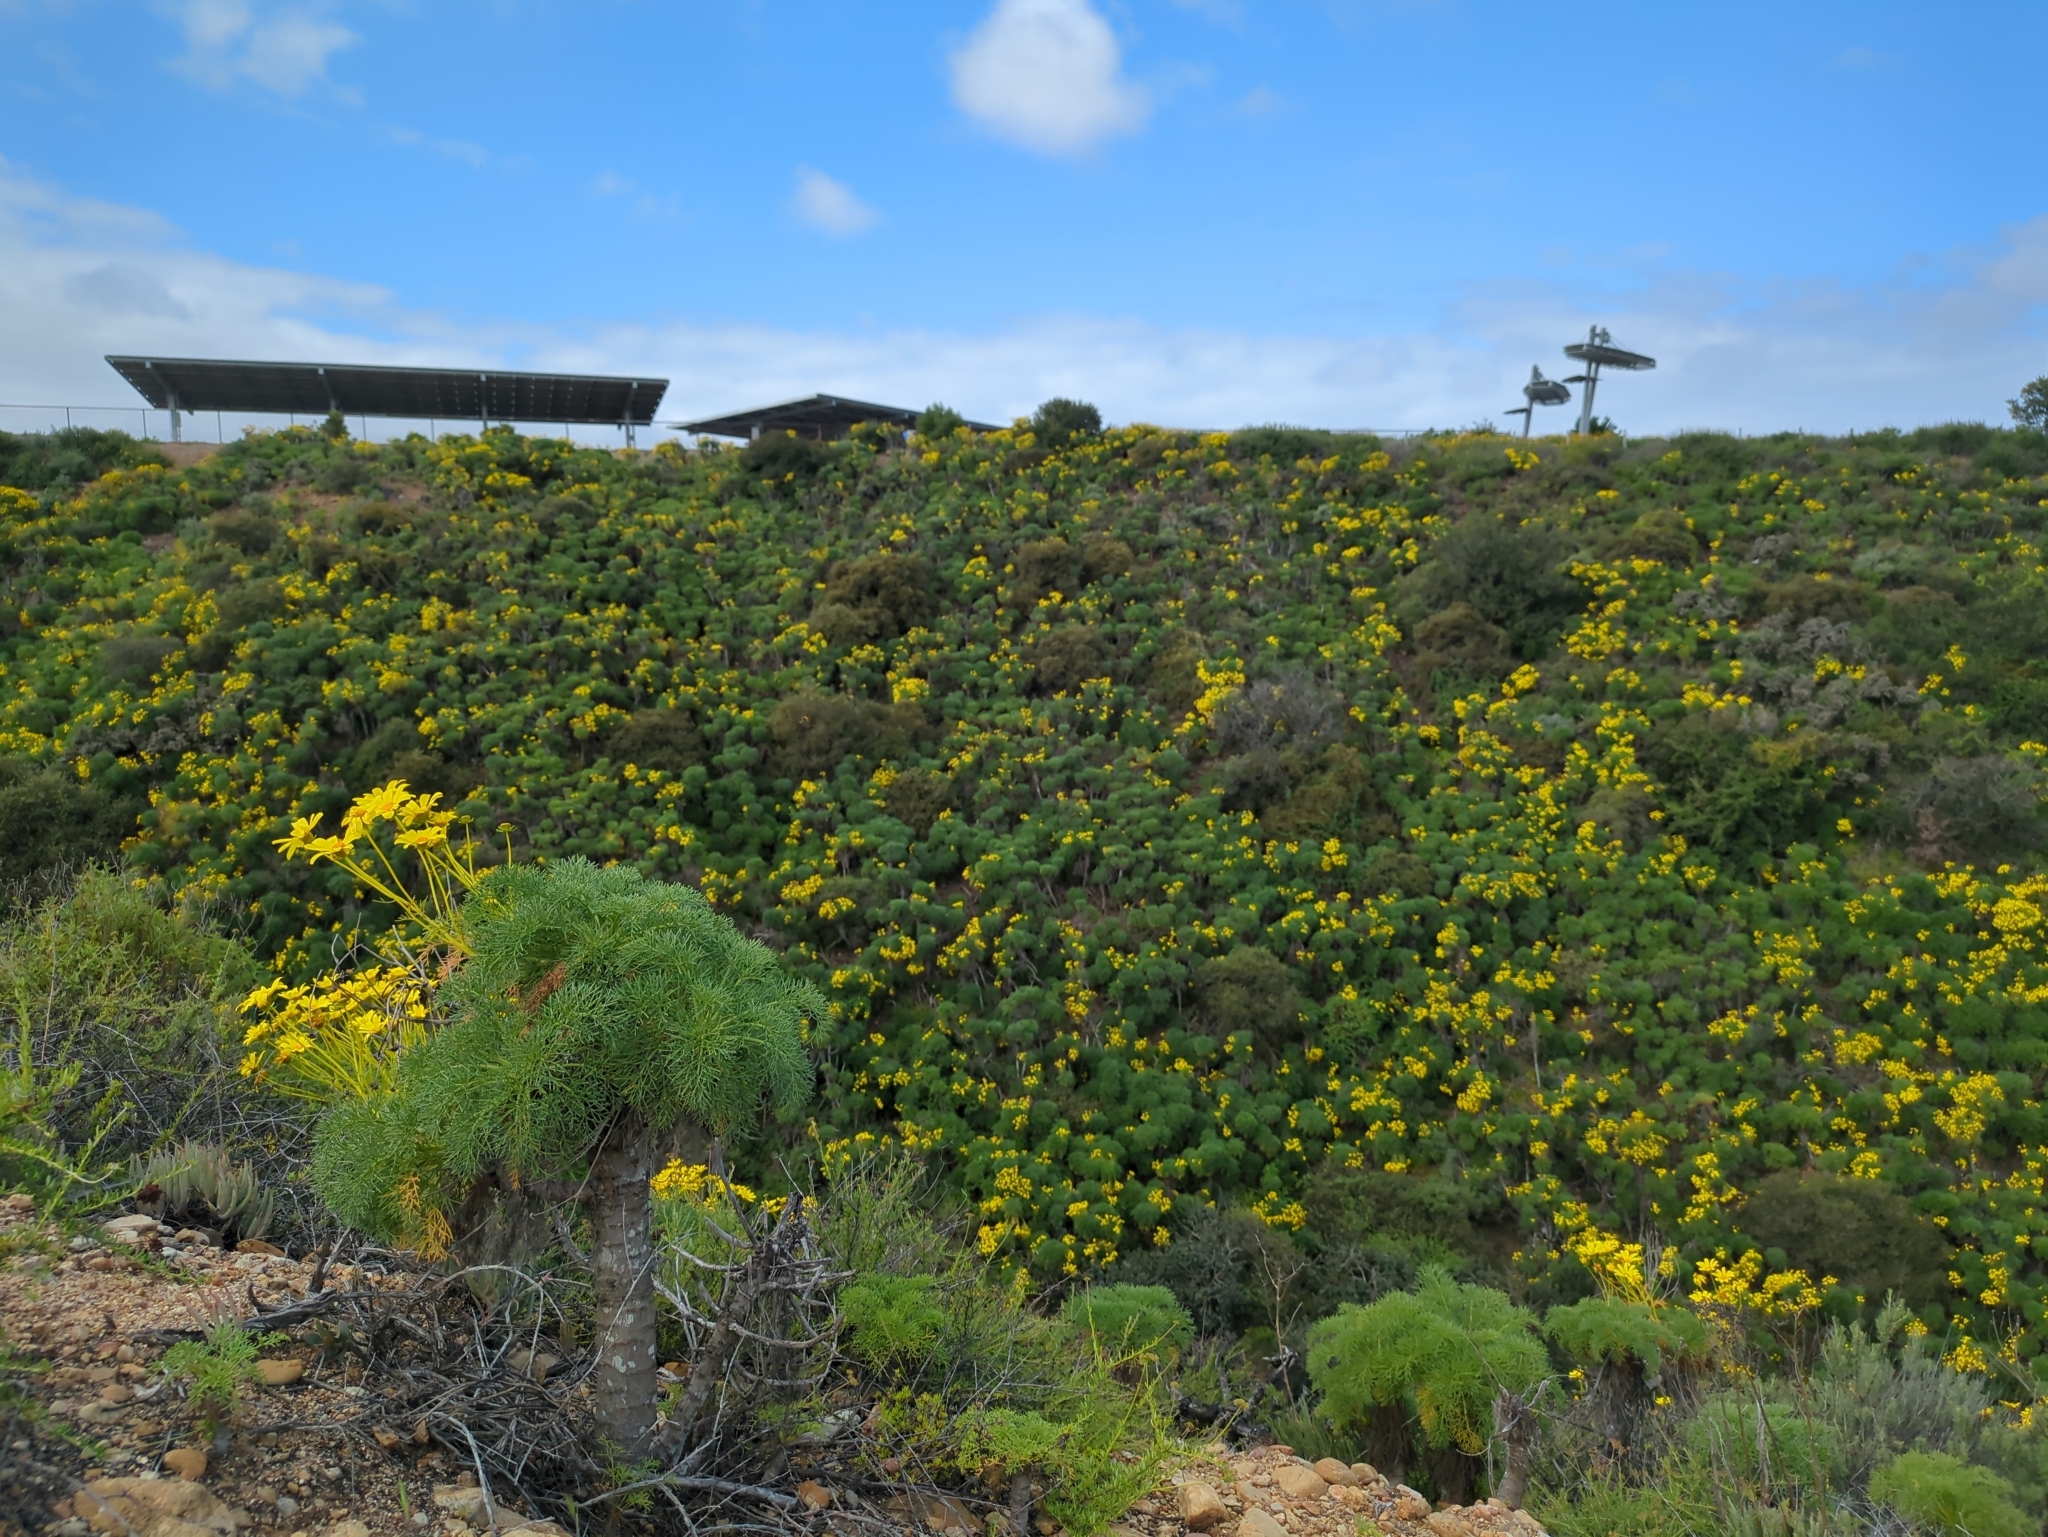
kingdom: Plantae
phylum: Tracheophyta
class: Magnoliopsida
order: Asterales
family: Asteraceae
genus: Coreopsis
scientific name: Coreopsis gigantea
